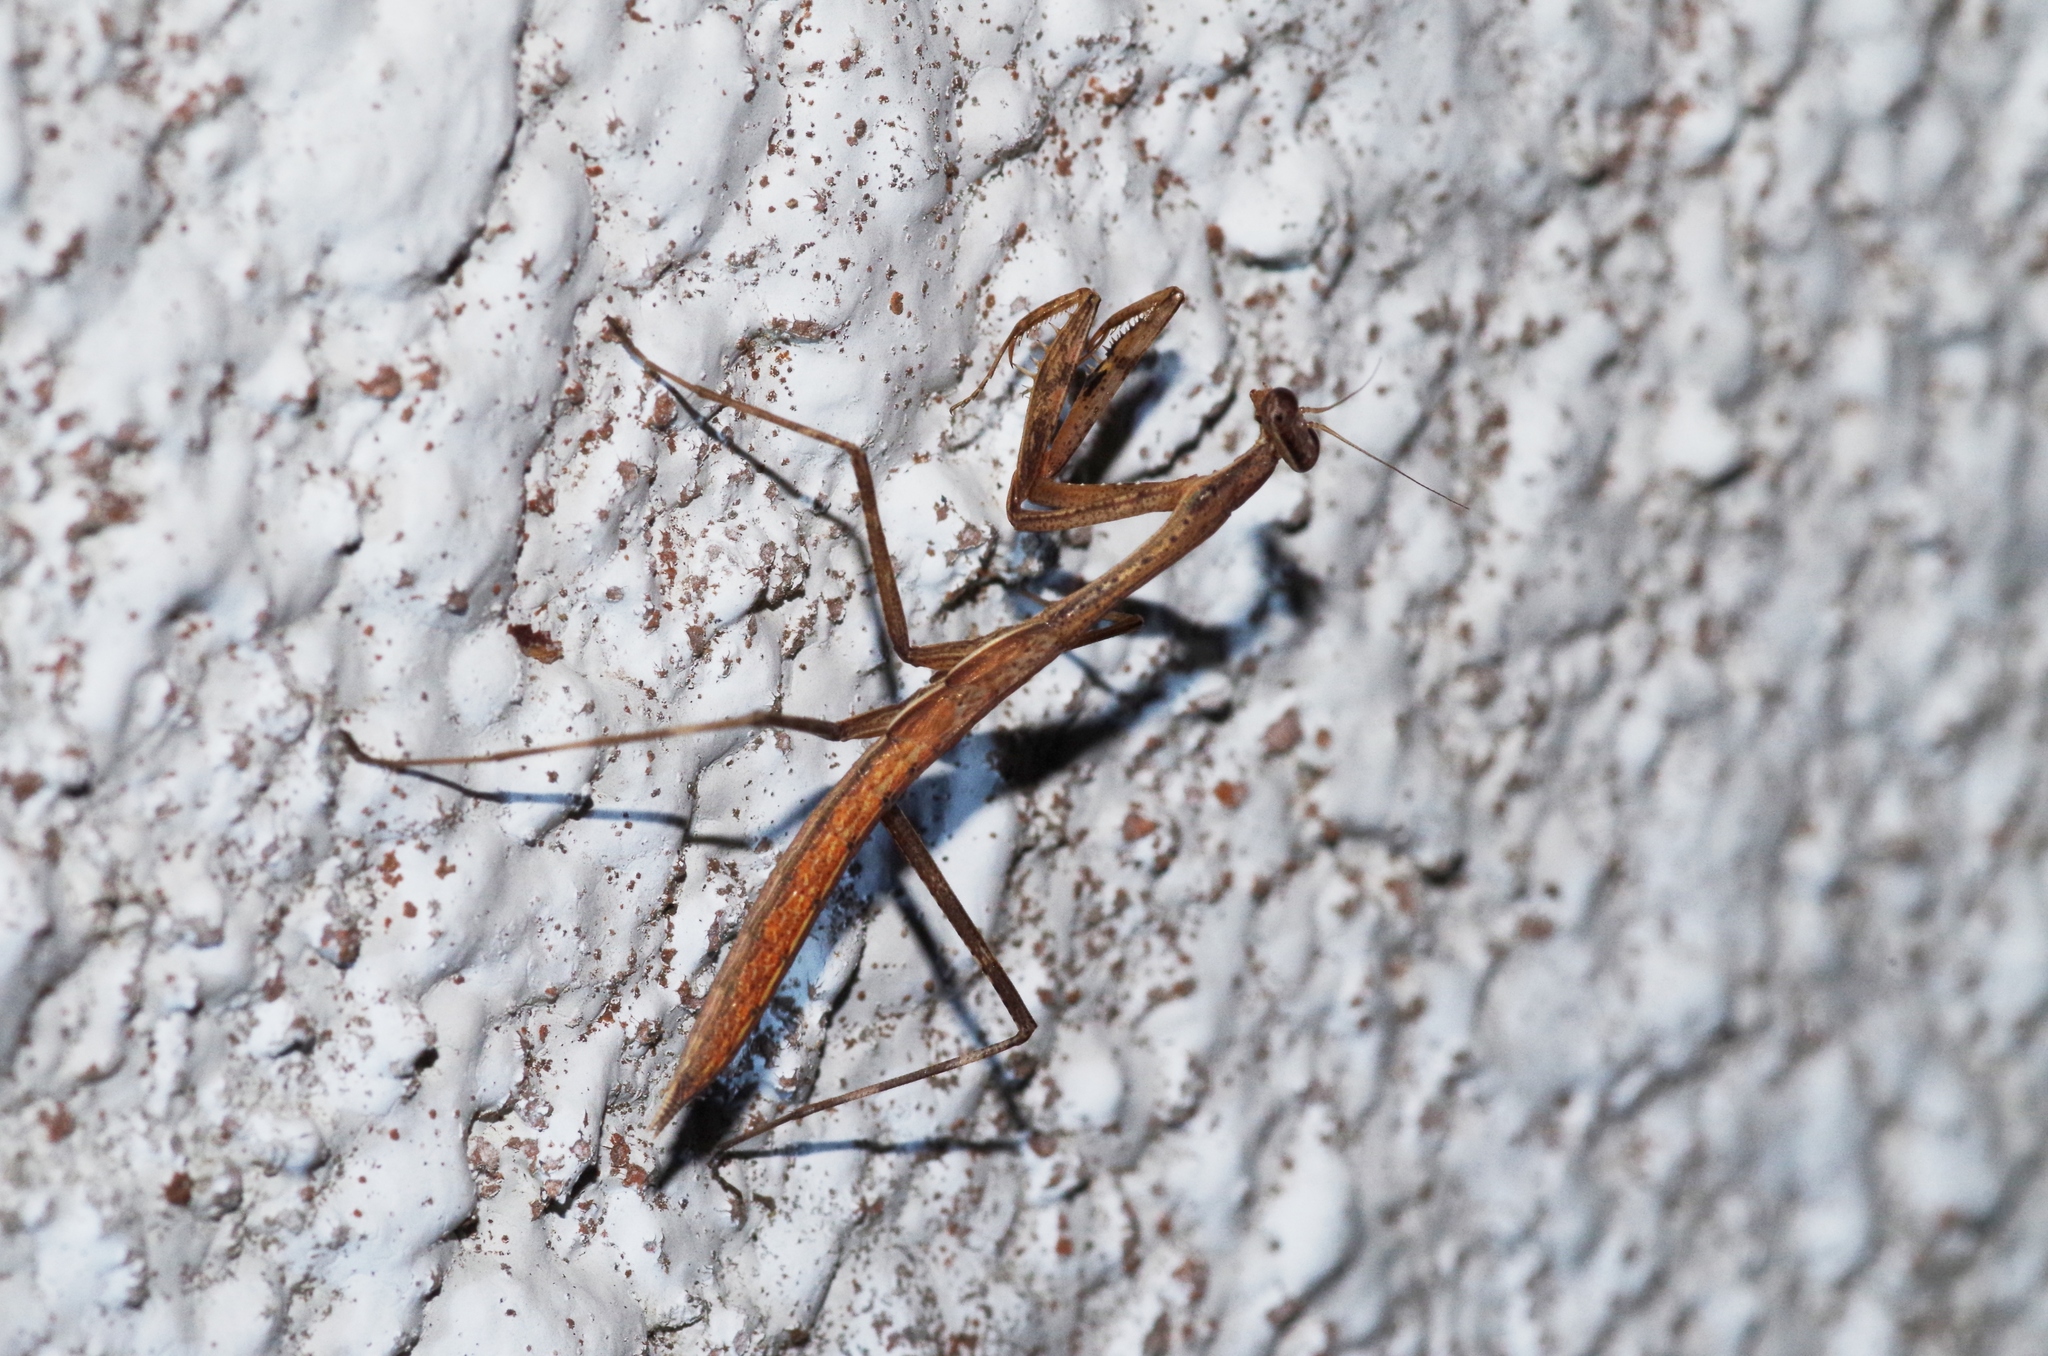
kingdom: Animalia
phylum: Arthropoda
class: Insecta
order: Mantodea
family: Mantidae
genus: Statilia
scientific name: Statilia nemoralis
